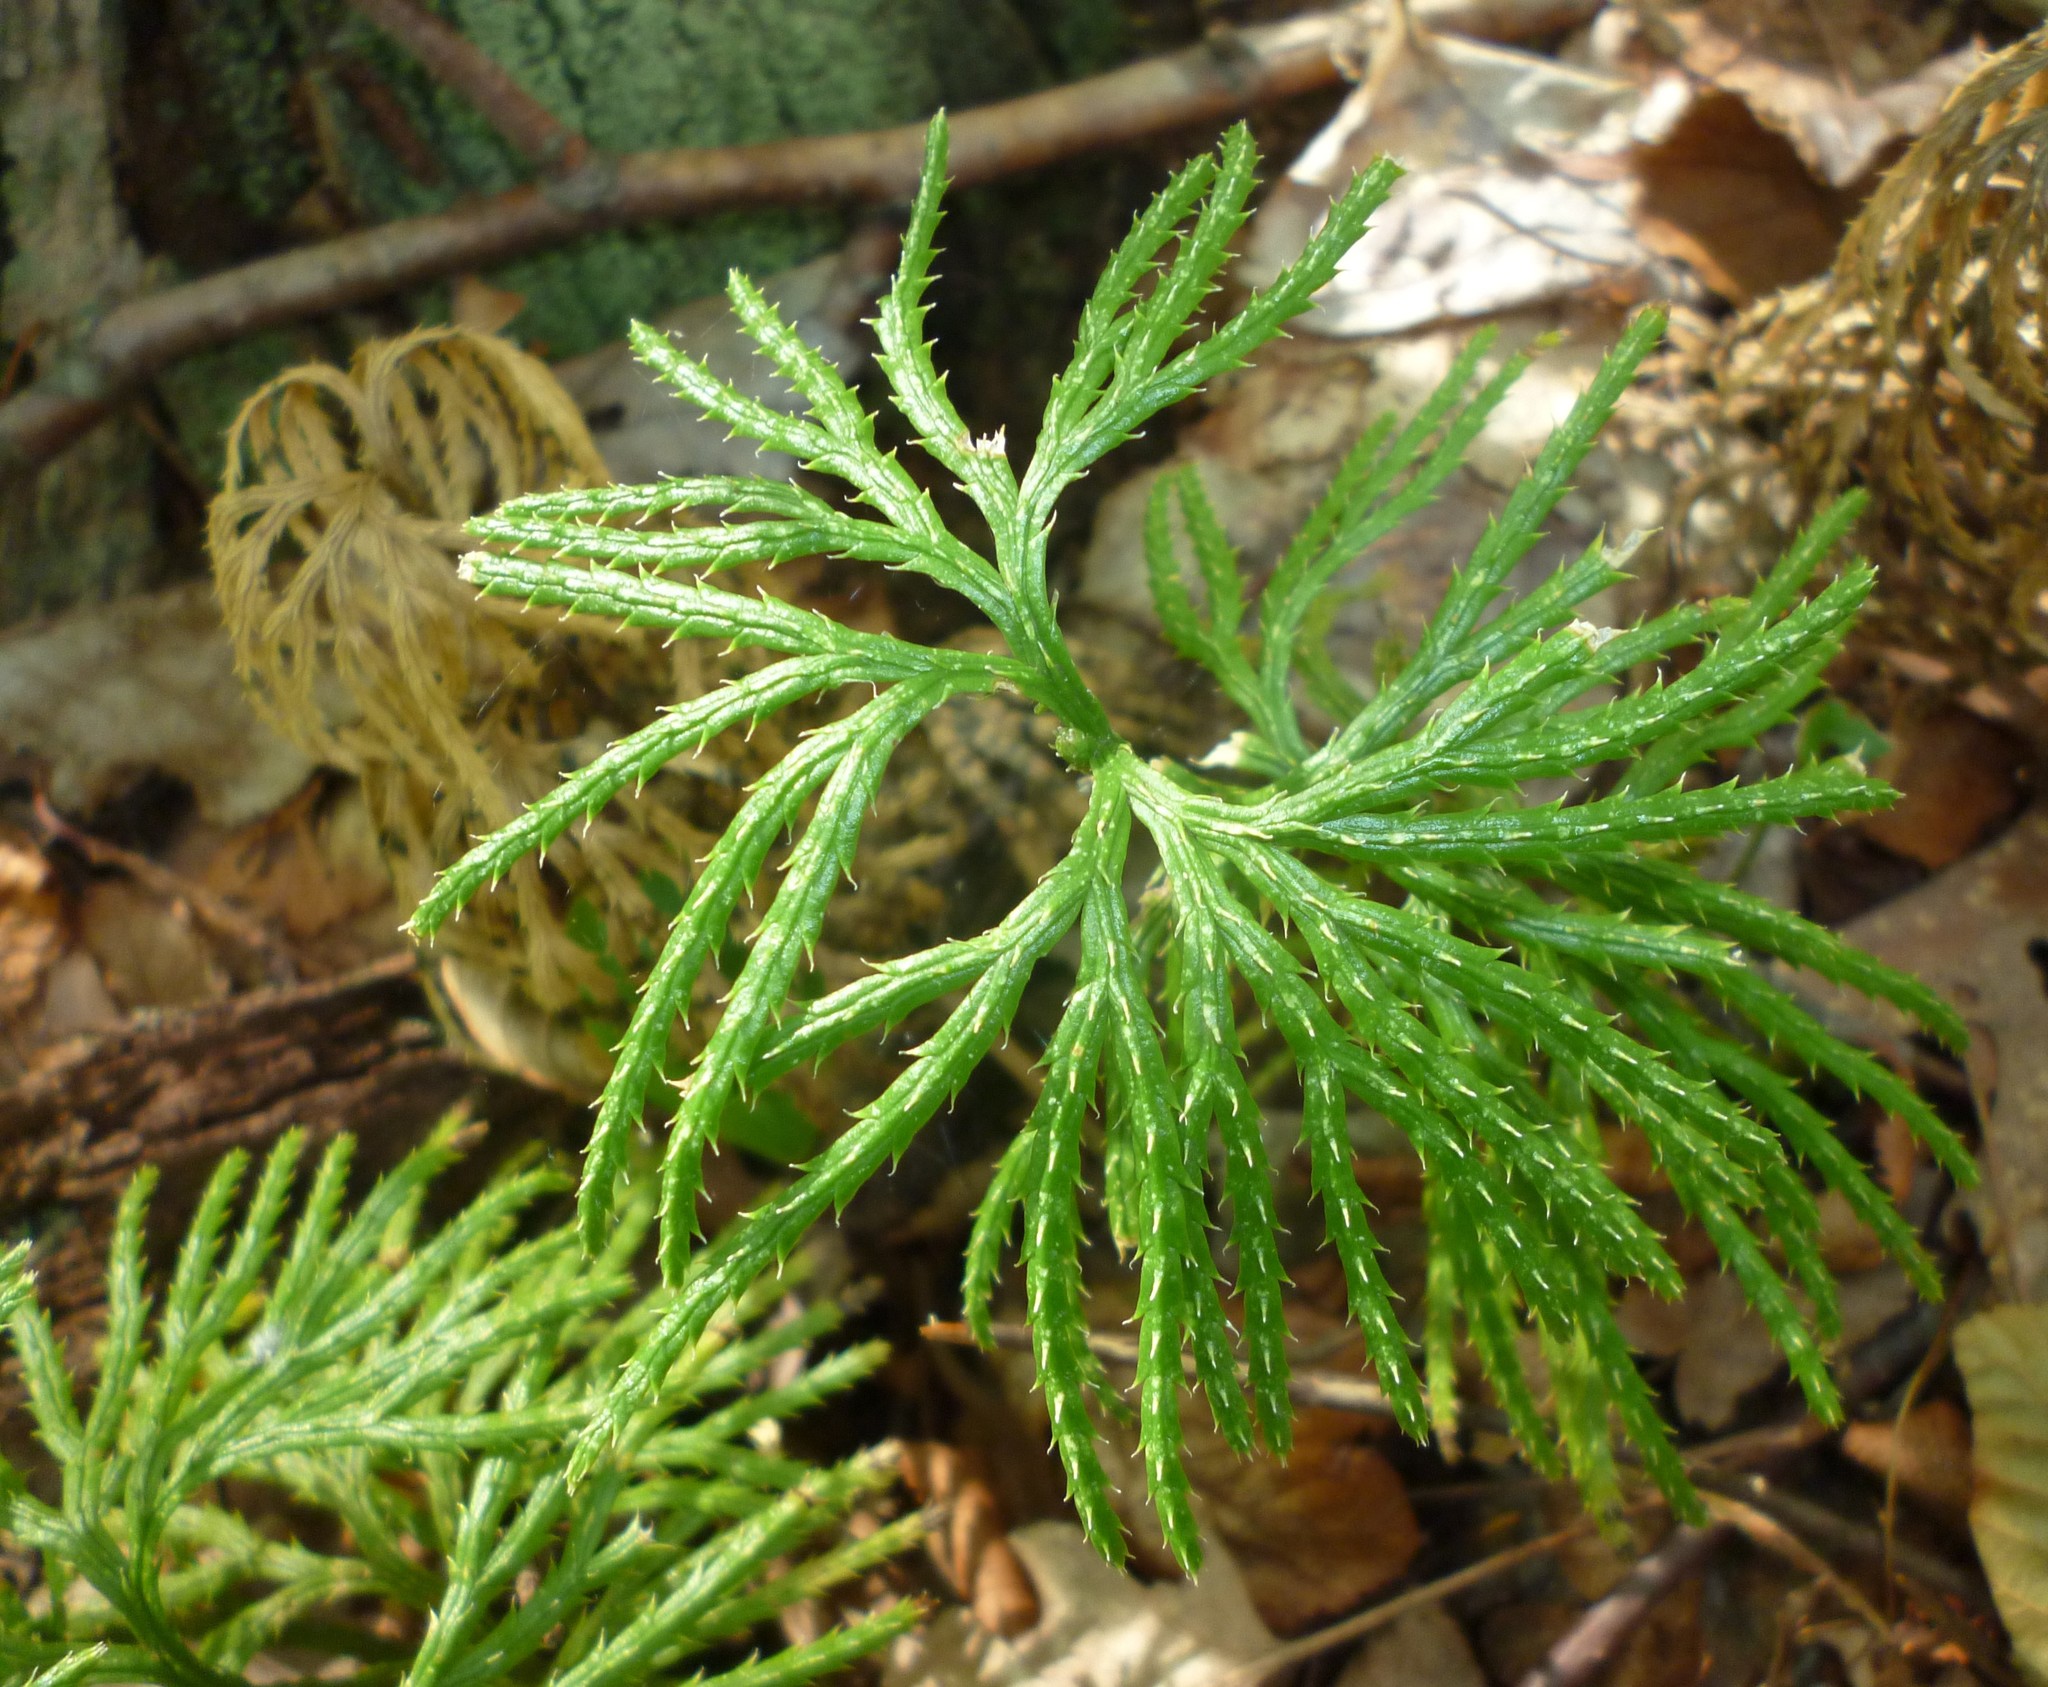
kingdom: Plantae
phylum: Tracheophyta
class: Lycopodiopsida
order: Lycopodiales
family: Lycopodiaceae
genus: Diphasiastrum
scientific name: Diphasiastrum digitatum
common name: Southern running-pine
